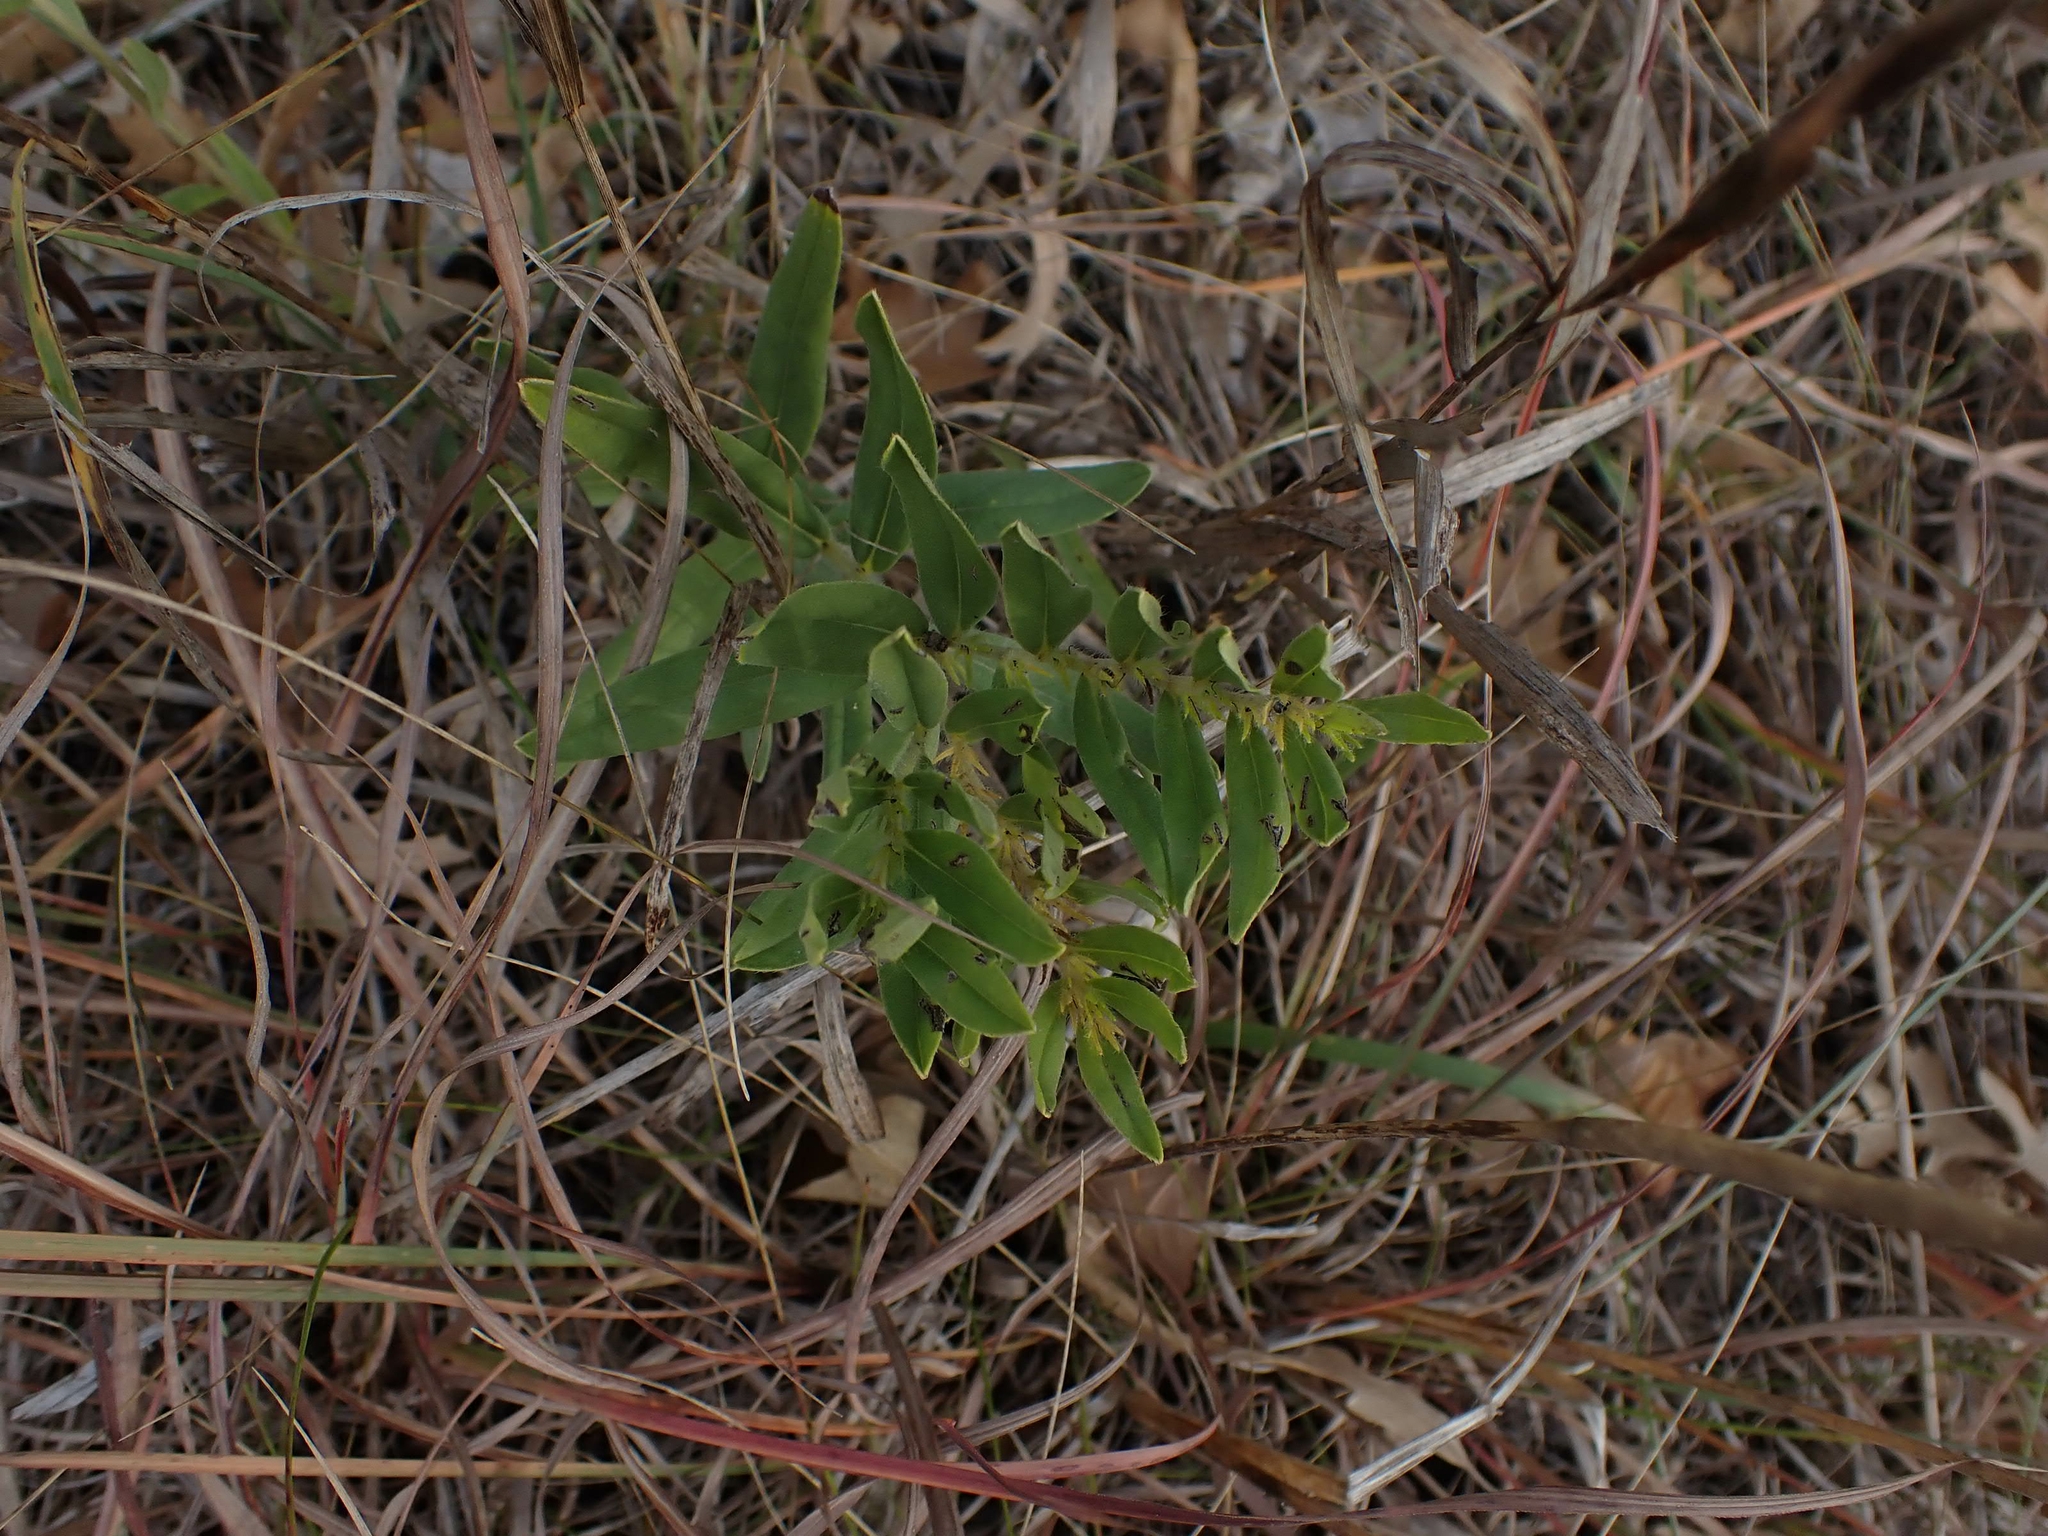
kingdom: Plantae
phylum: Tracheophyta
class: Magnoliopsida
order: Boraginales
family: Boraginaceae
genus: Lithospermum
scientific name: Lithospermum canescens
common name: Hoary puccoon
